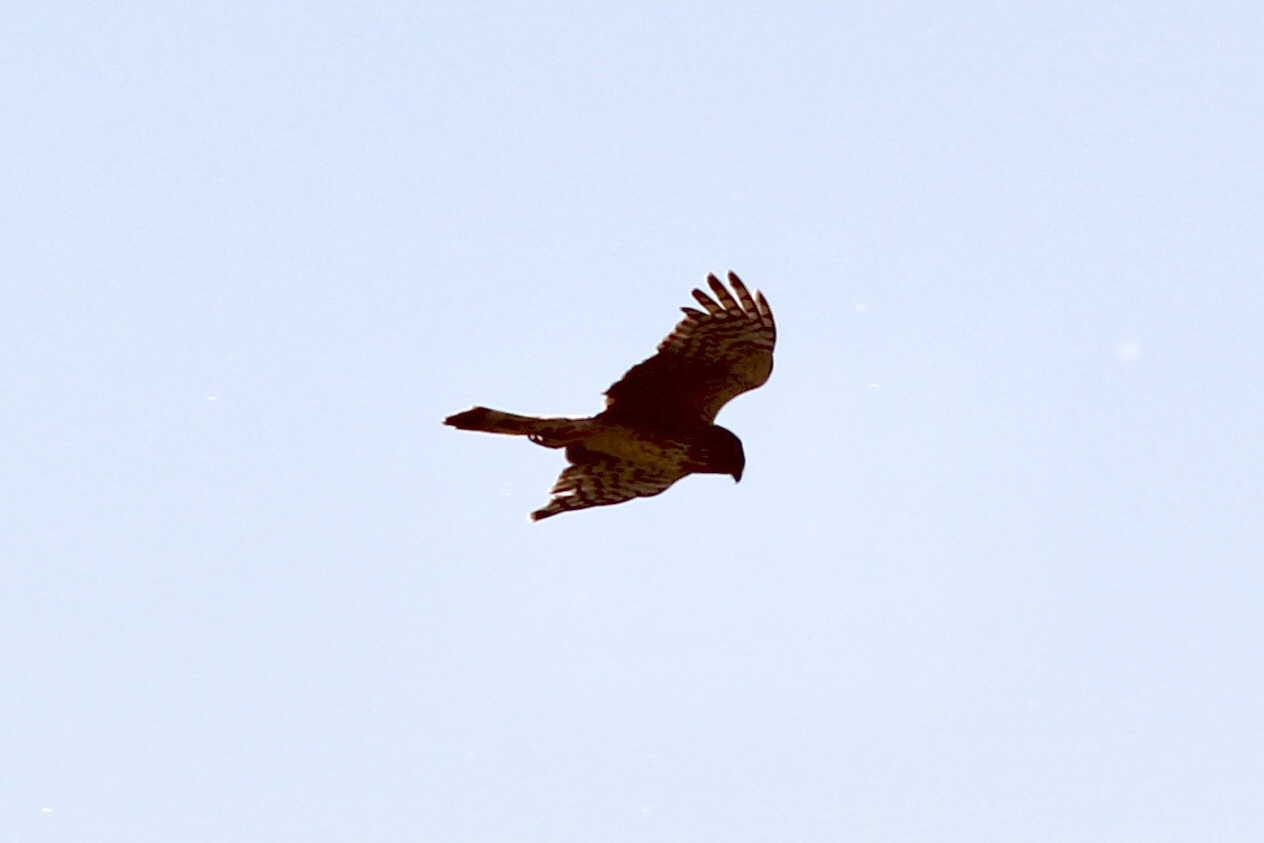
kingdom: Animalia
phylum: Chordata
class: Aves
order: Accipitriformes
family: Accipitridae
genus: Circus
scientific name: Circus cyaneus
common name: Hen harrier
